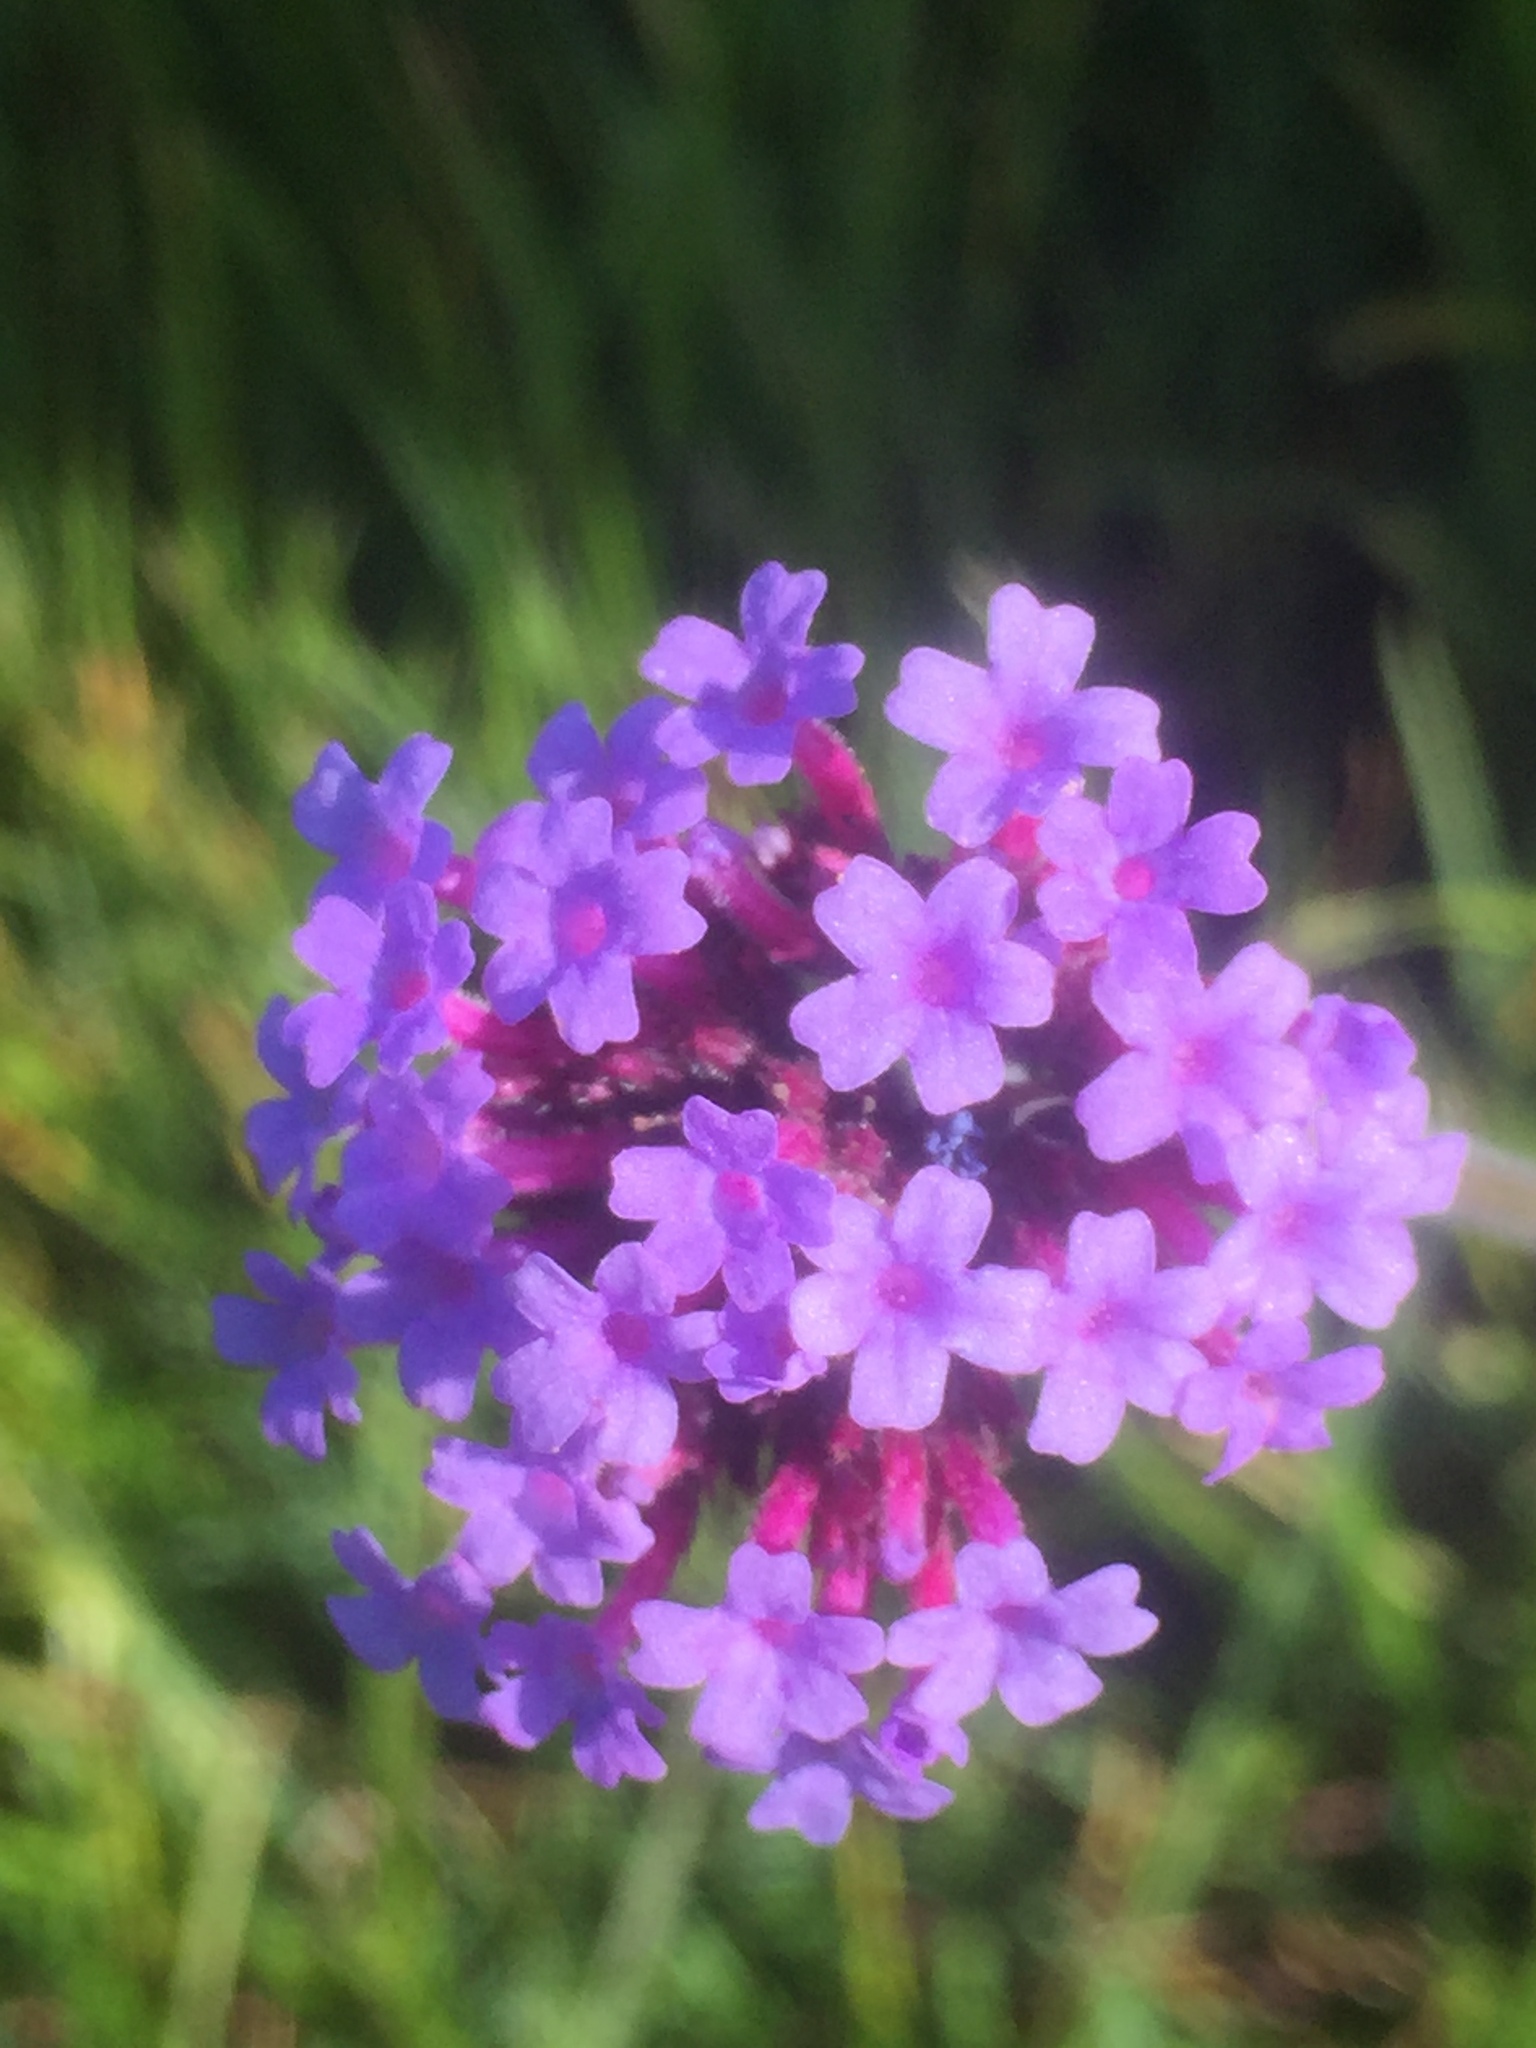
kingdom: Plantae
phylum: Tracheophyta
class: Magnoliopsida
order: Lamiales
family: Verbenaceae
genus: Verbena
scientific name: Verbena bonariensis
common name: Purpletop vervain
